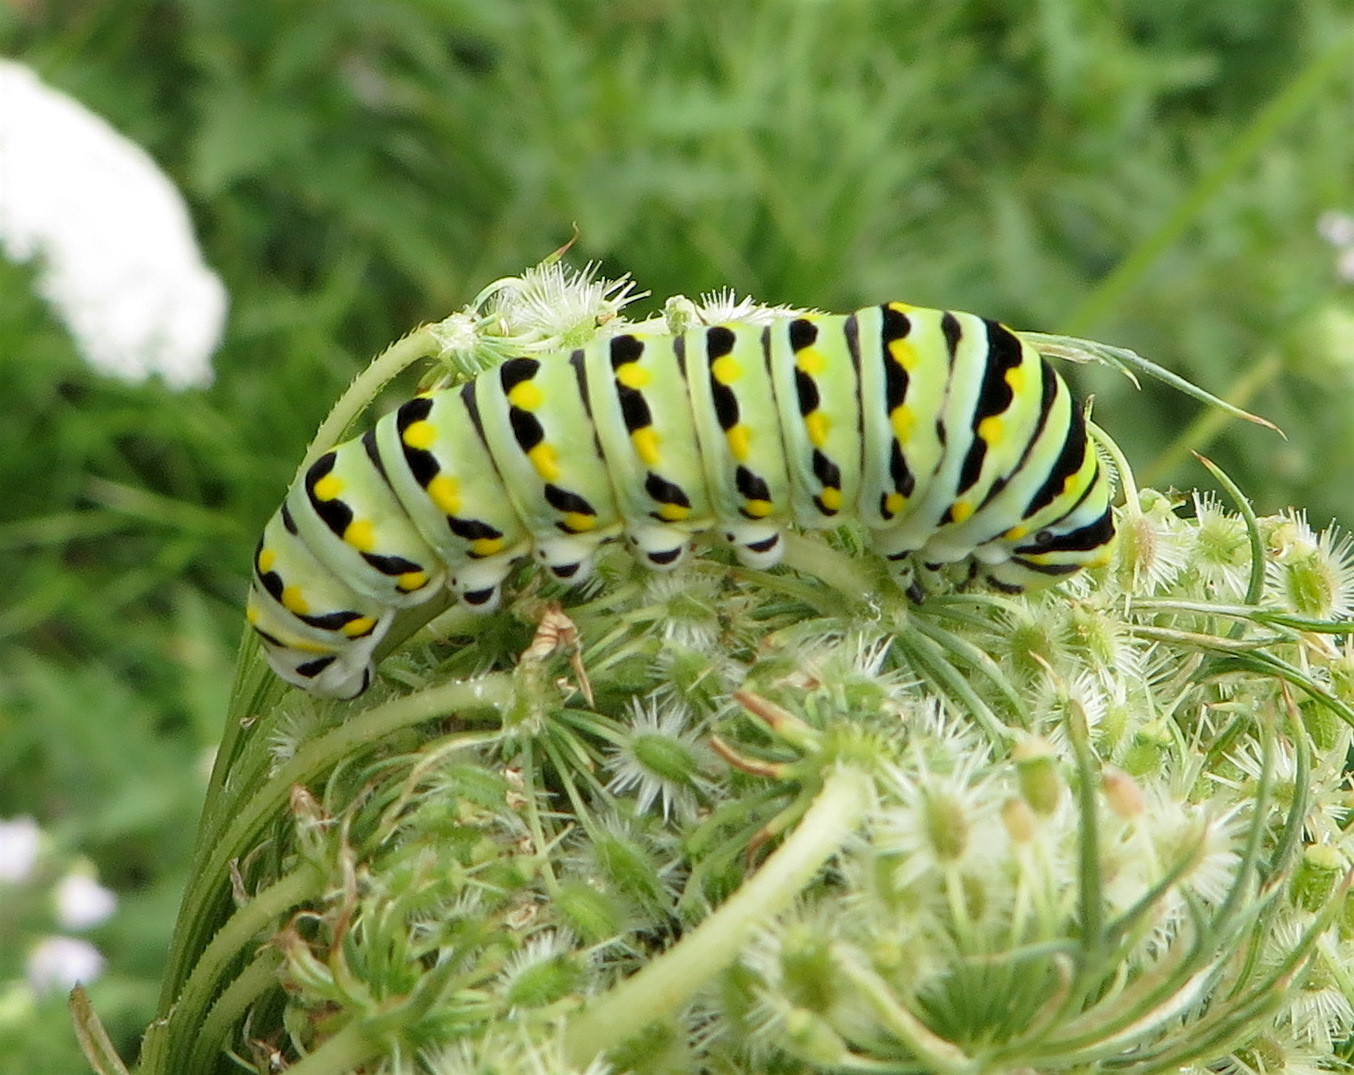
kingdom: Animalia
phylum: Arthropoda
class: Insecta
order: Lepidoptera
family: Papilionidae
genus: Papilio
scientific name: Papilio polyxenes
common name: Black swallowtail
